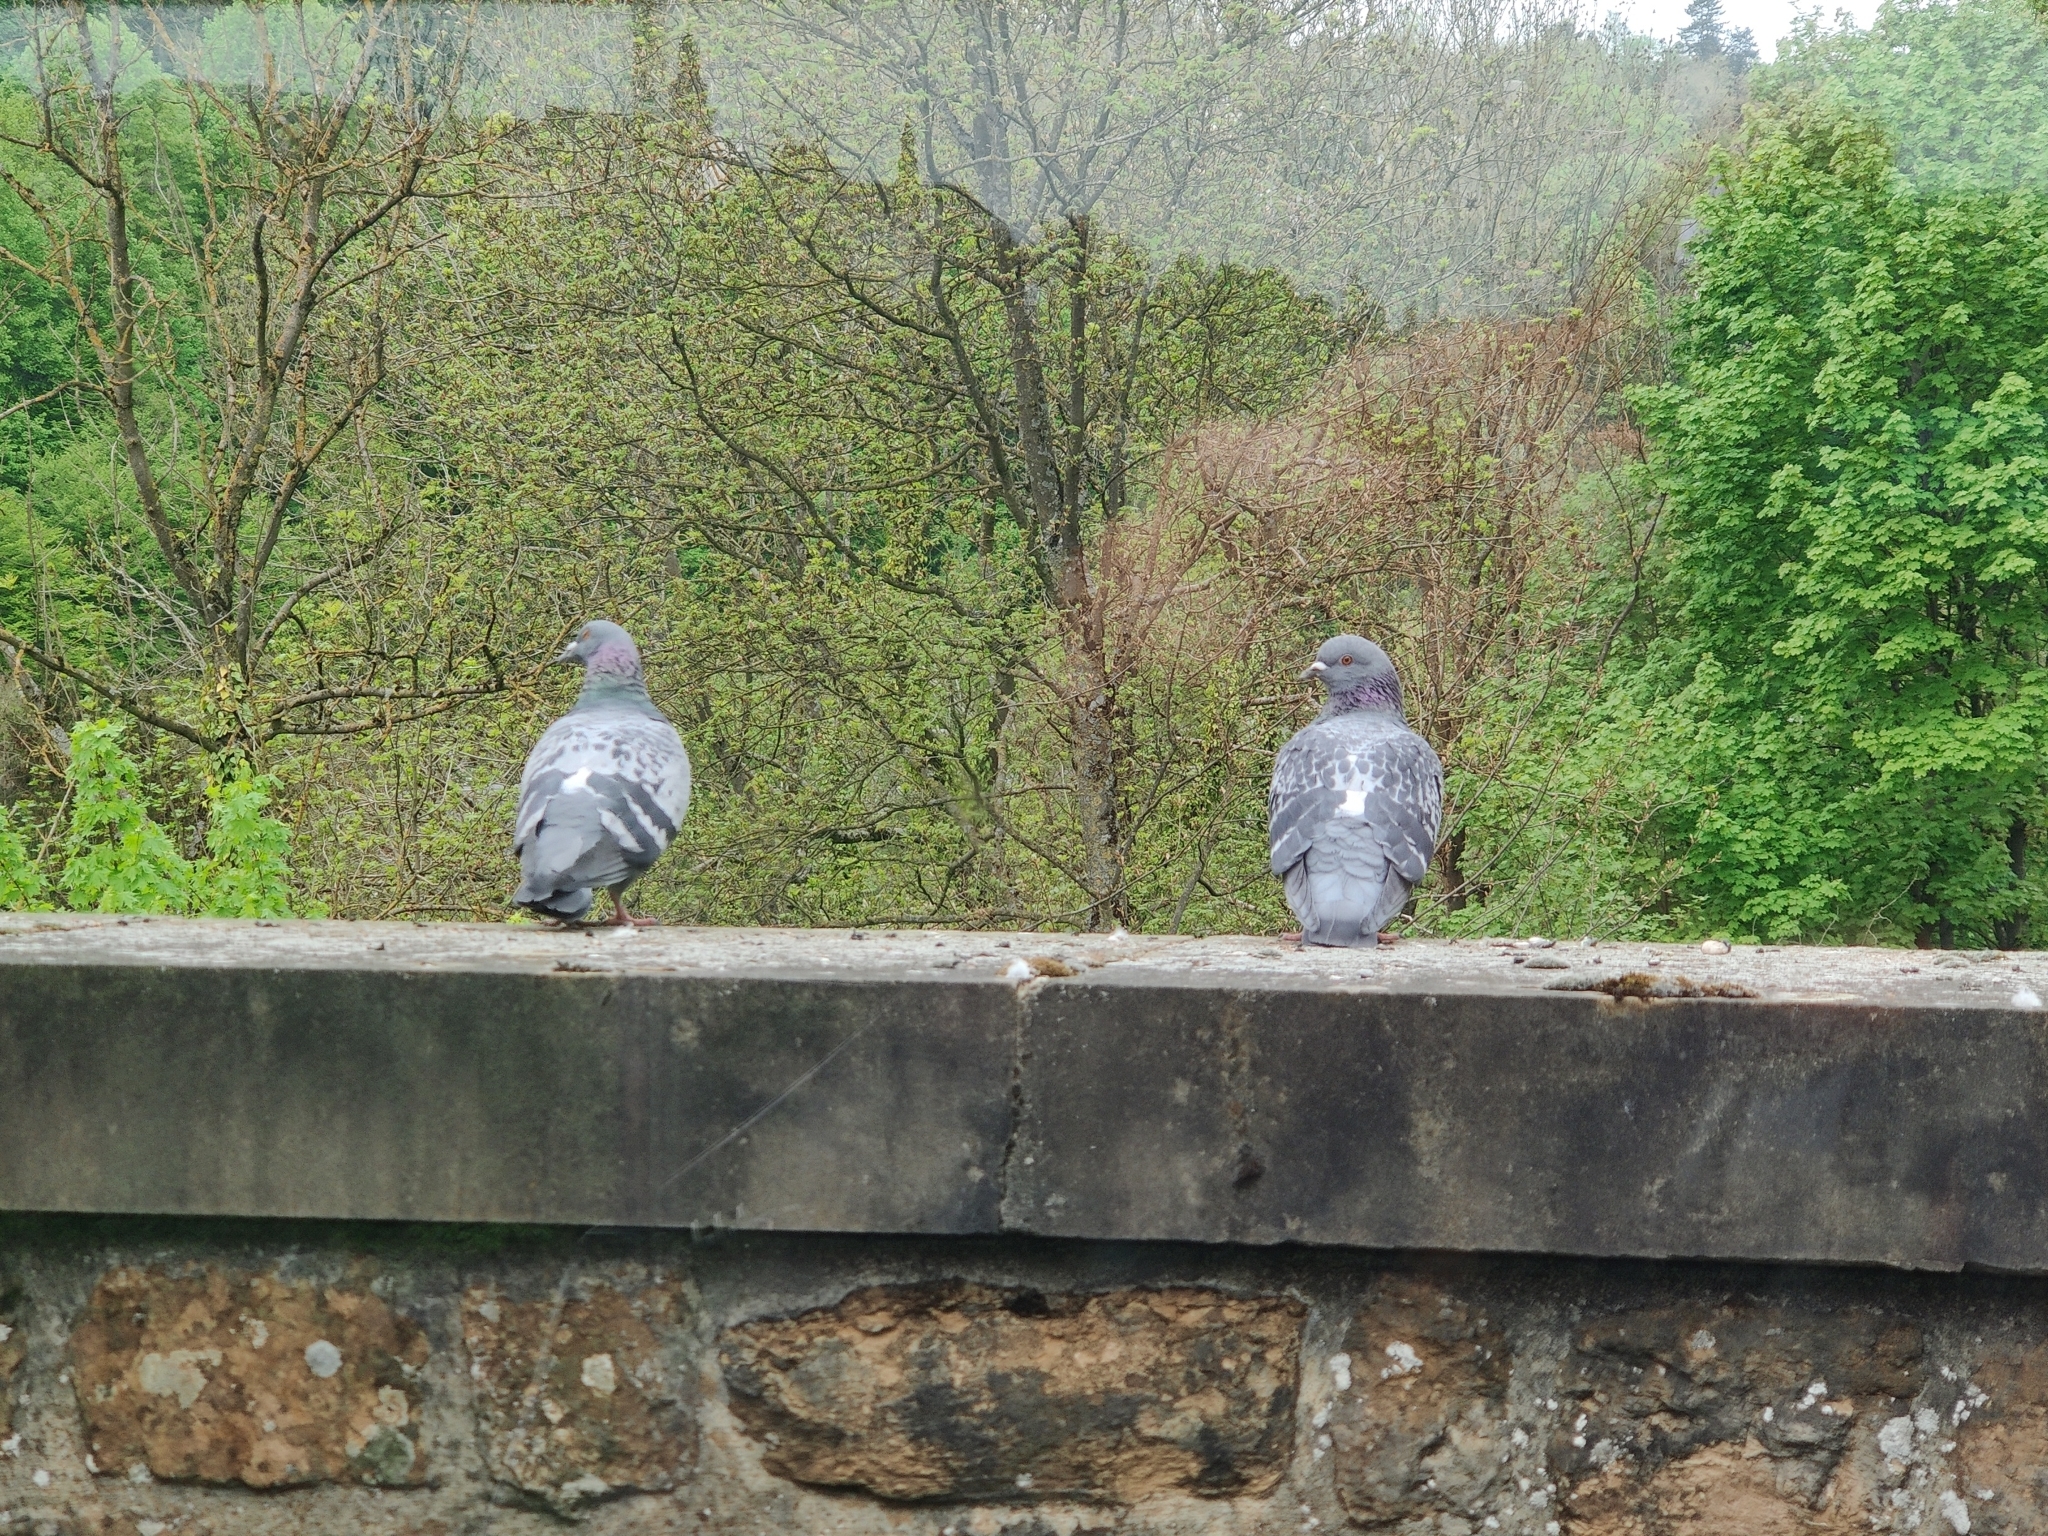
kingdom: Animalia
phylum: Chordata
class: Aves
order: Columbiformes
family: Columbidae
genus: Columba
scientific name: Columba livia
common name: Rock pigeon
